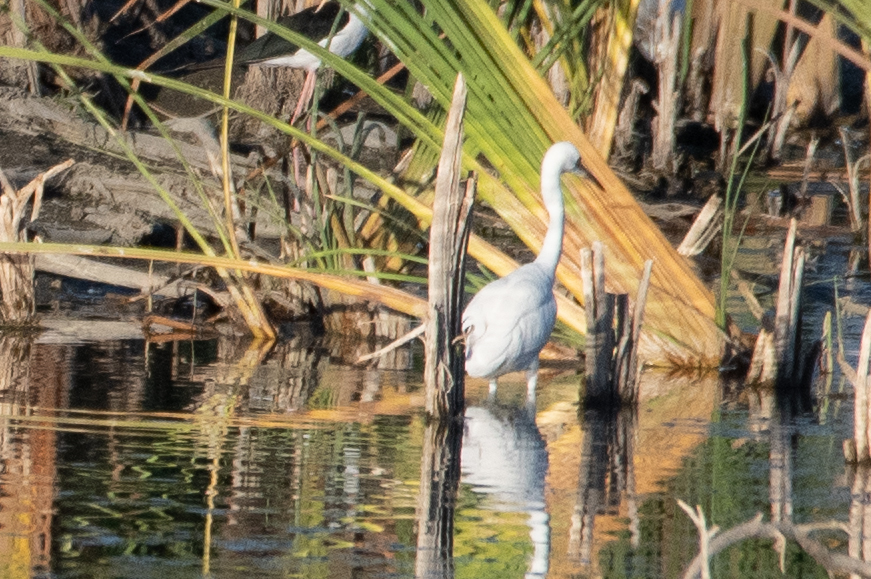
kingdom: Animalia
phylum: Chordata
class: Aves
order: Pelecaniformes
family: Ardeidae
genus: Ardea
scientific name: Ardea alba
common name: Great egret
